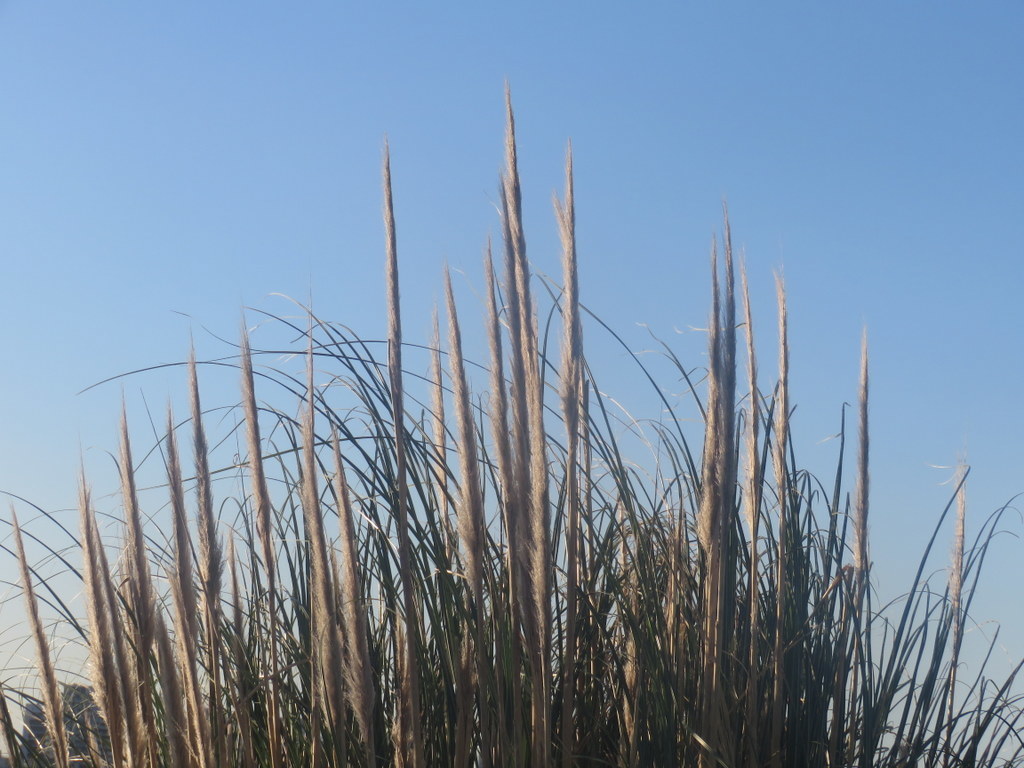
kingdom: Plantae
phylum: Tracheophyta
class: Liliopsida
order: Poales
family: Poaceae
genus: Cortaderia
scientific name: Cortaderia selloana
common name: Uruguayan pampas grass
